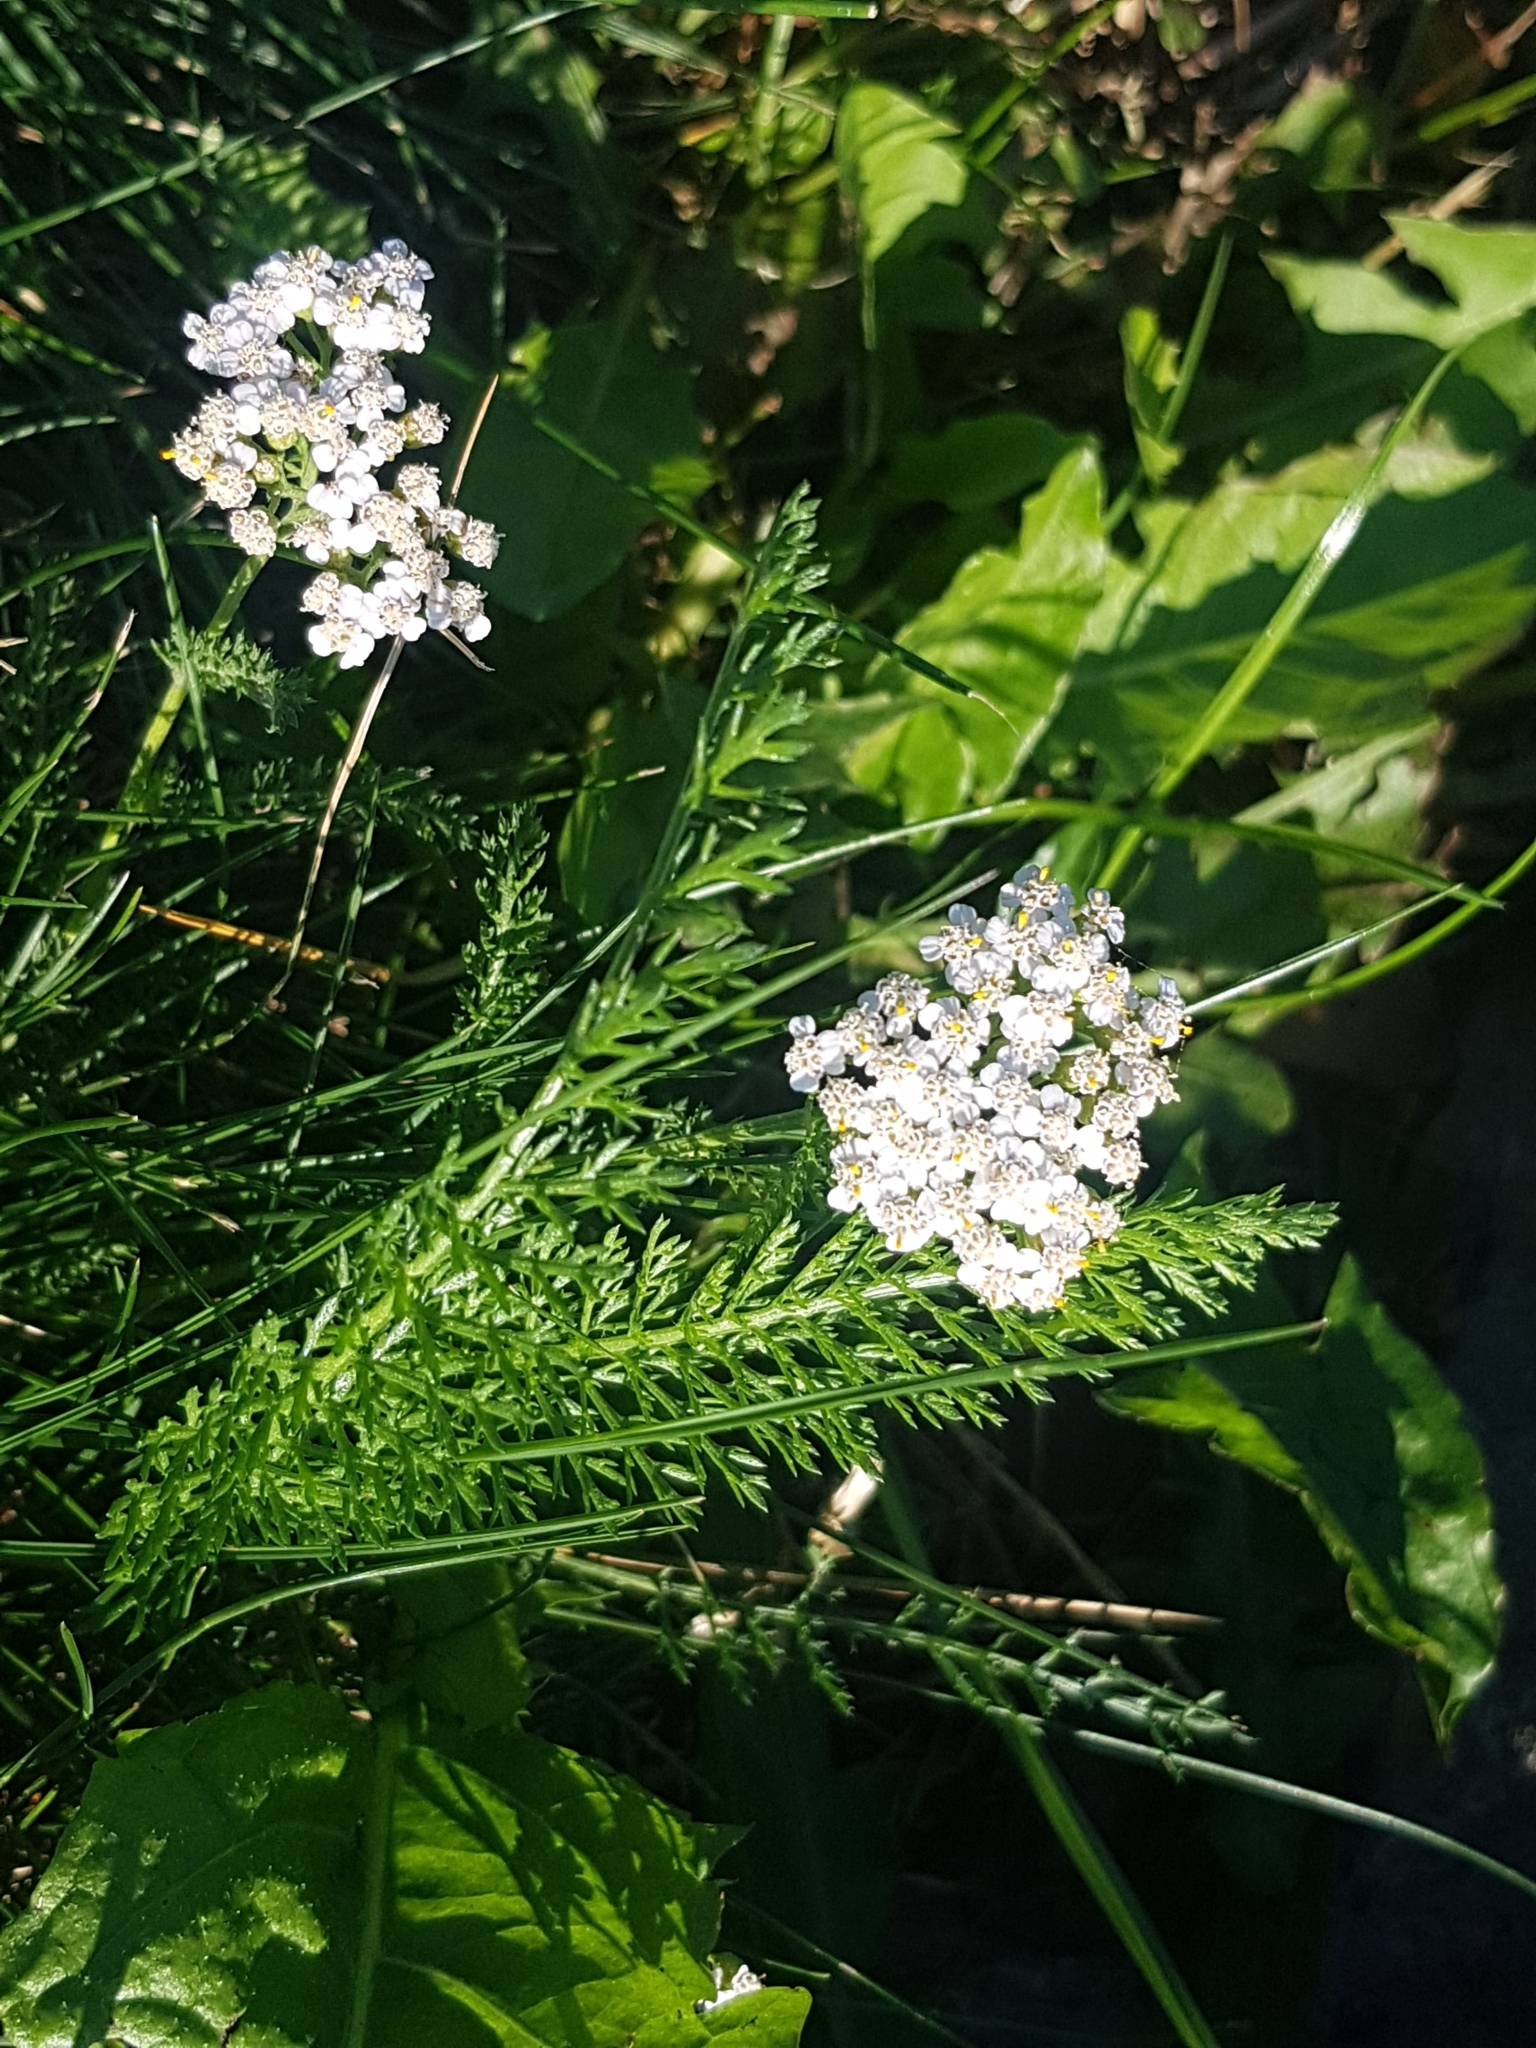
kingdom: Plantae
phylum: Tracheophyta
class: Magnoliopsida
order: Asterales
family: Asteraceae
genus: Achillea
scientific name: Achillea millefolium
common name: Yarrow
